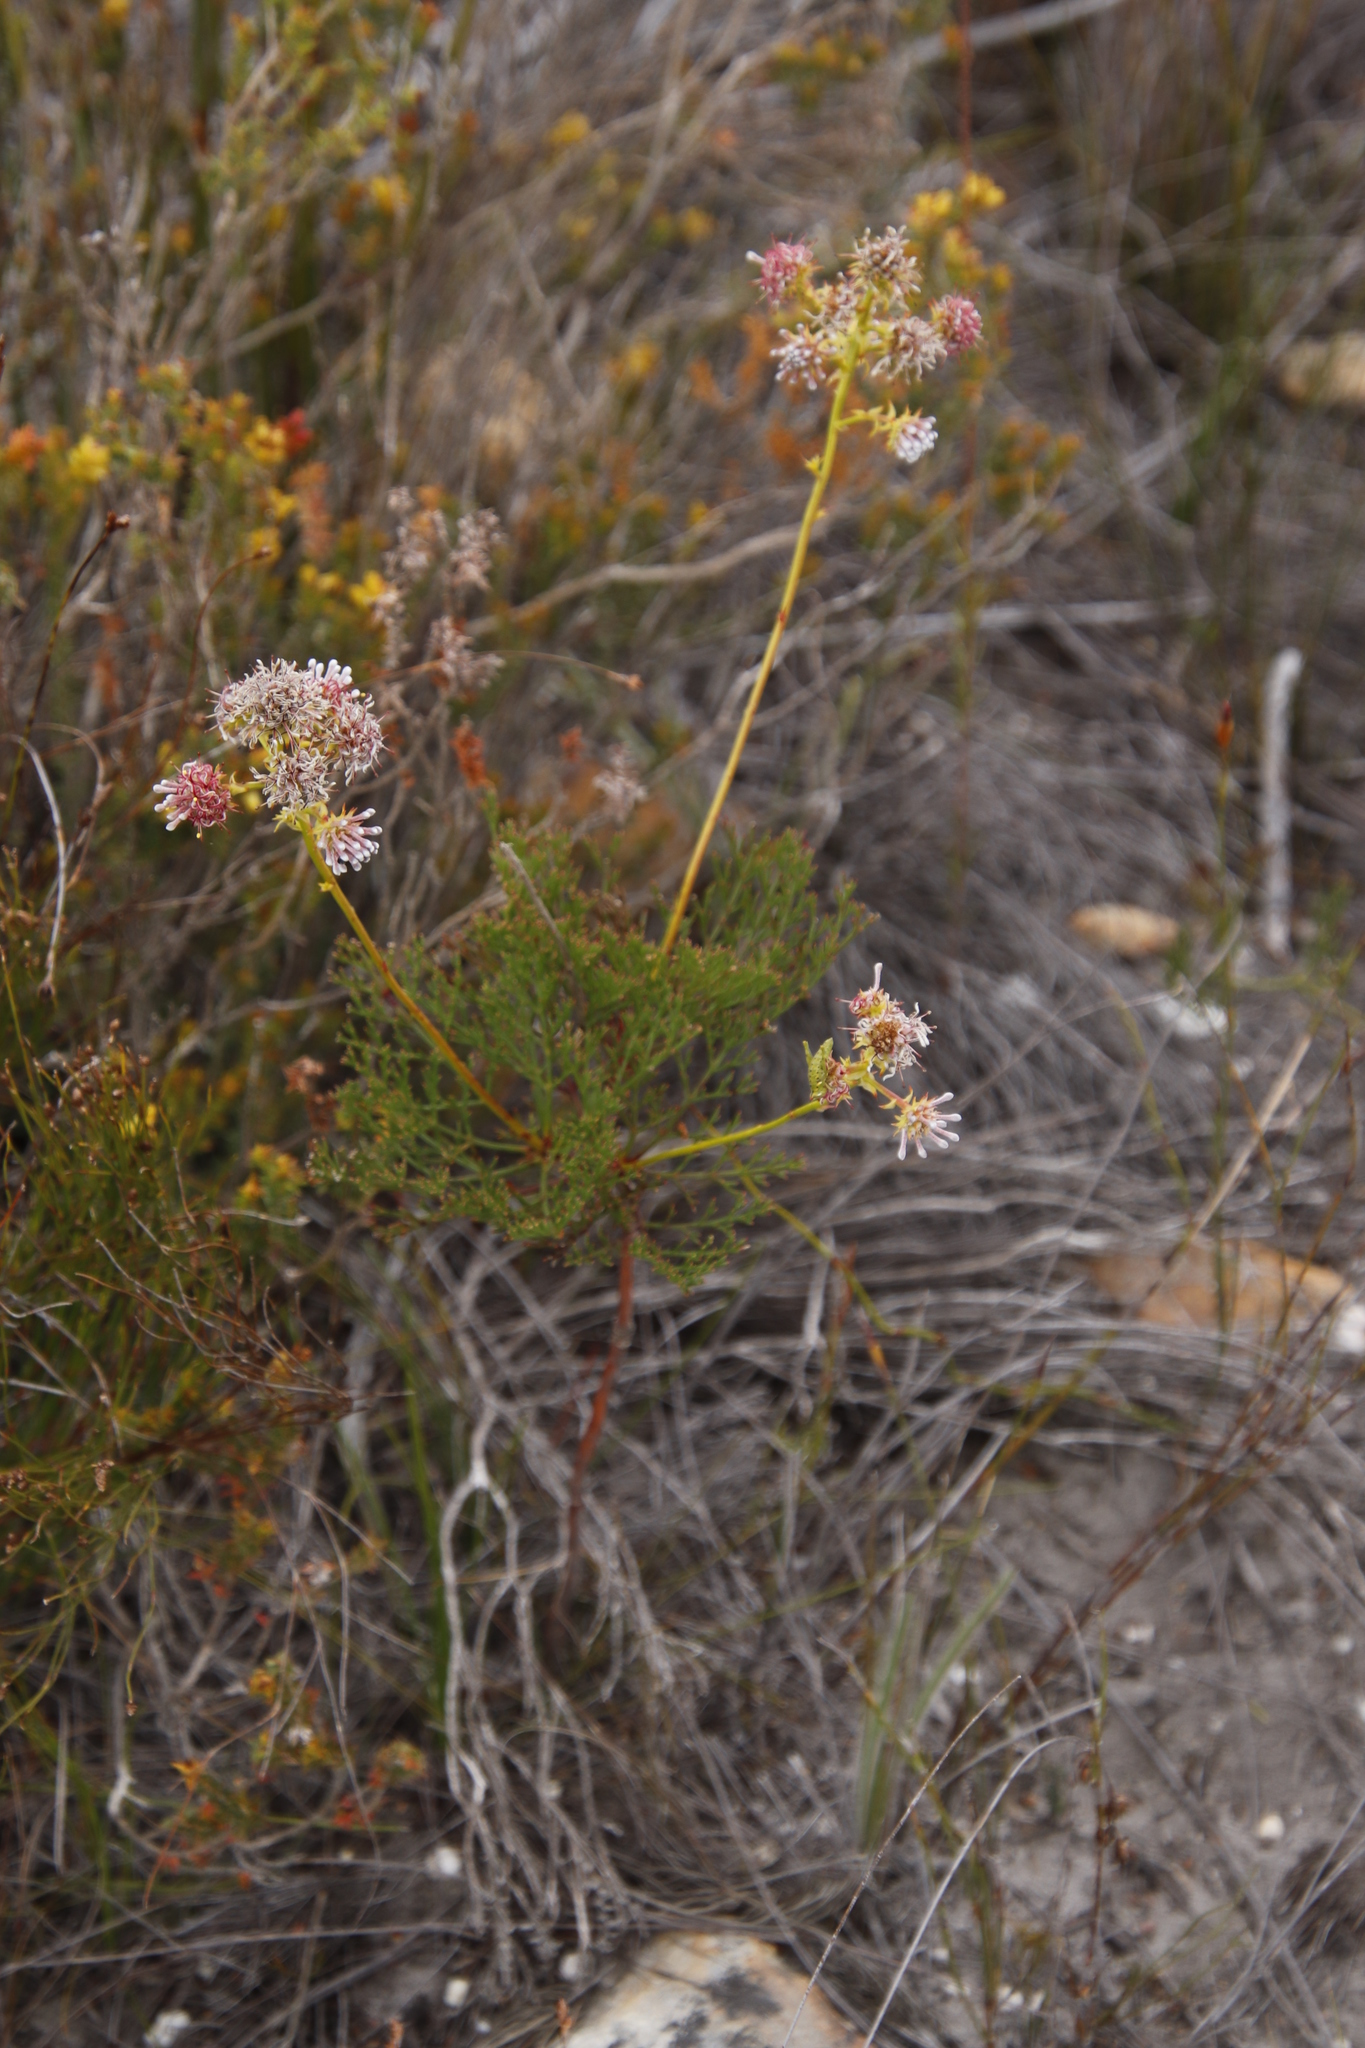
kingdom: Plantae
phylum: Tracheophyta
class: Magnoliopsida
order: Proteales
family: Proteaceae
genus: Serruria
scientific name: Serruria elongata
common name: Long-stalk spiderhead
